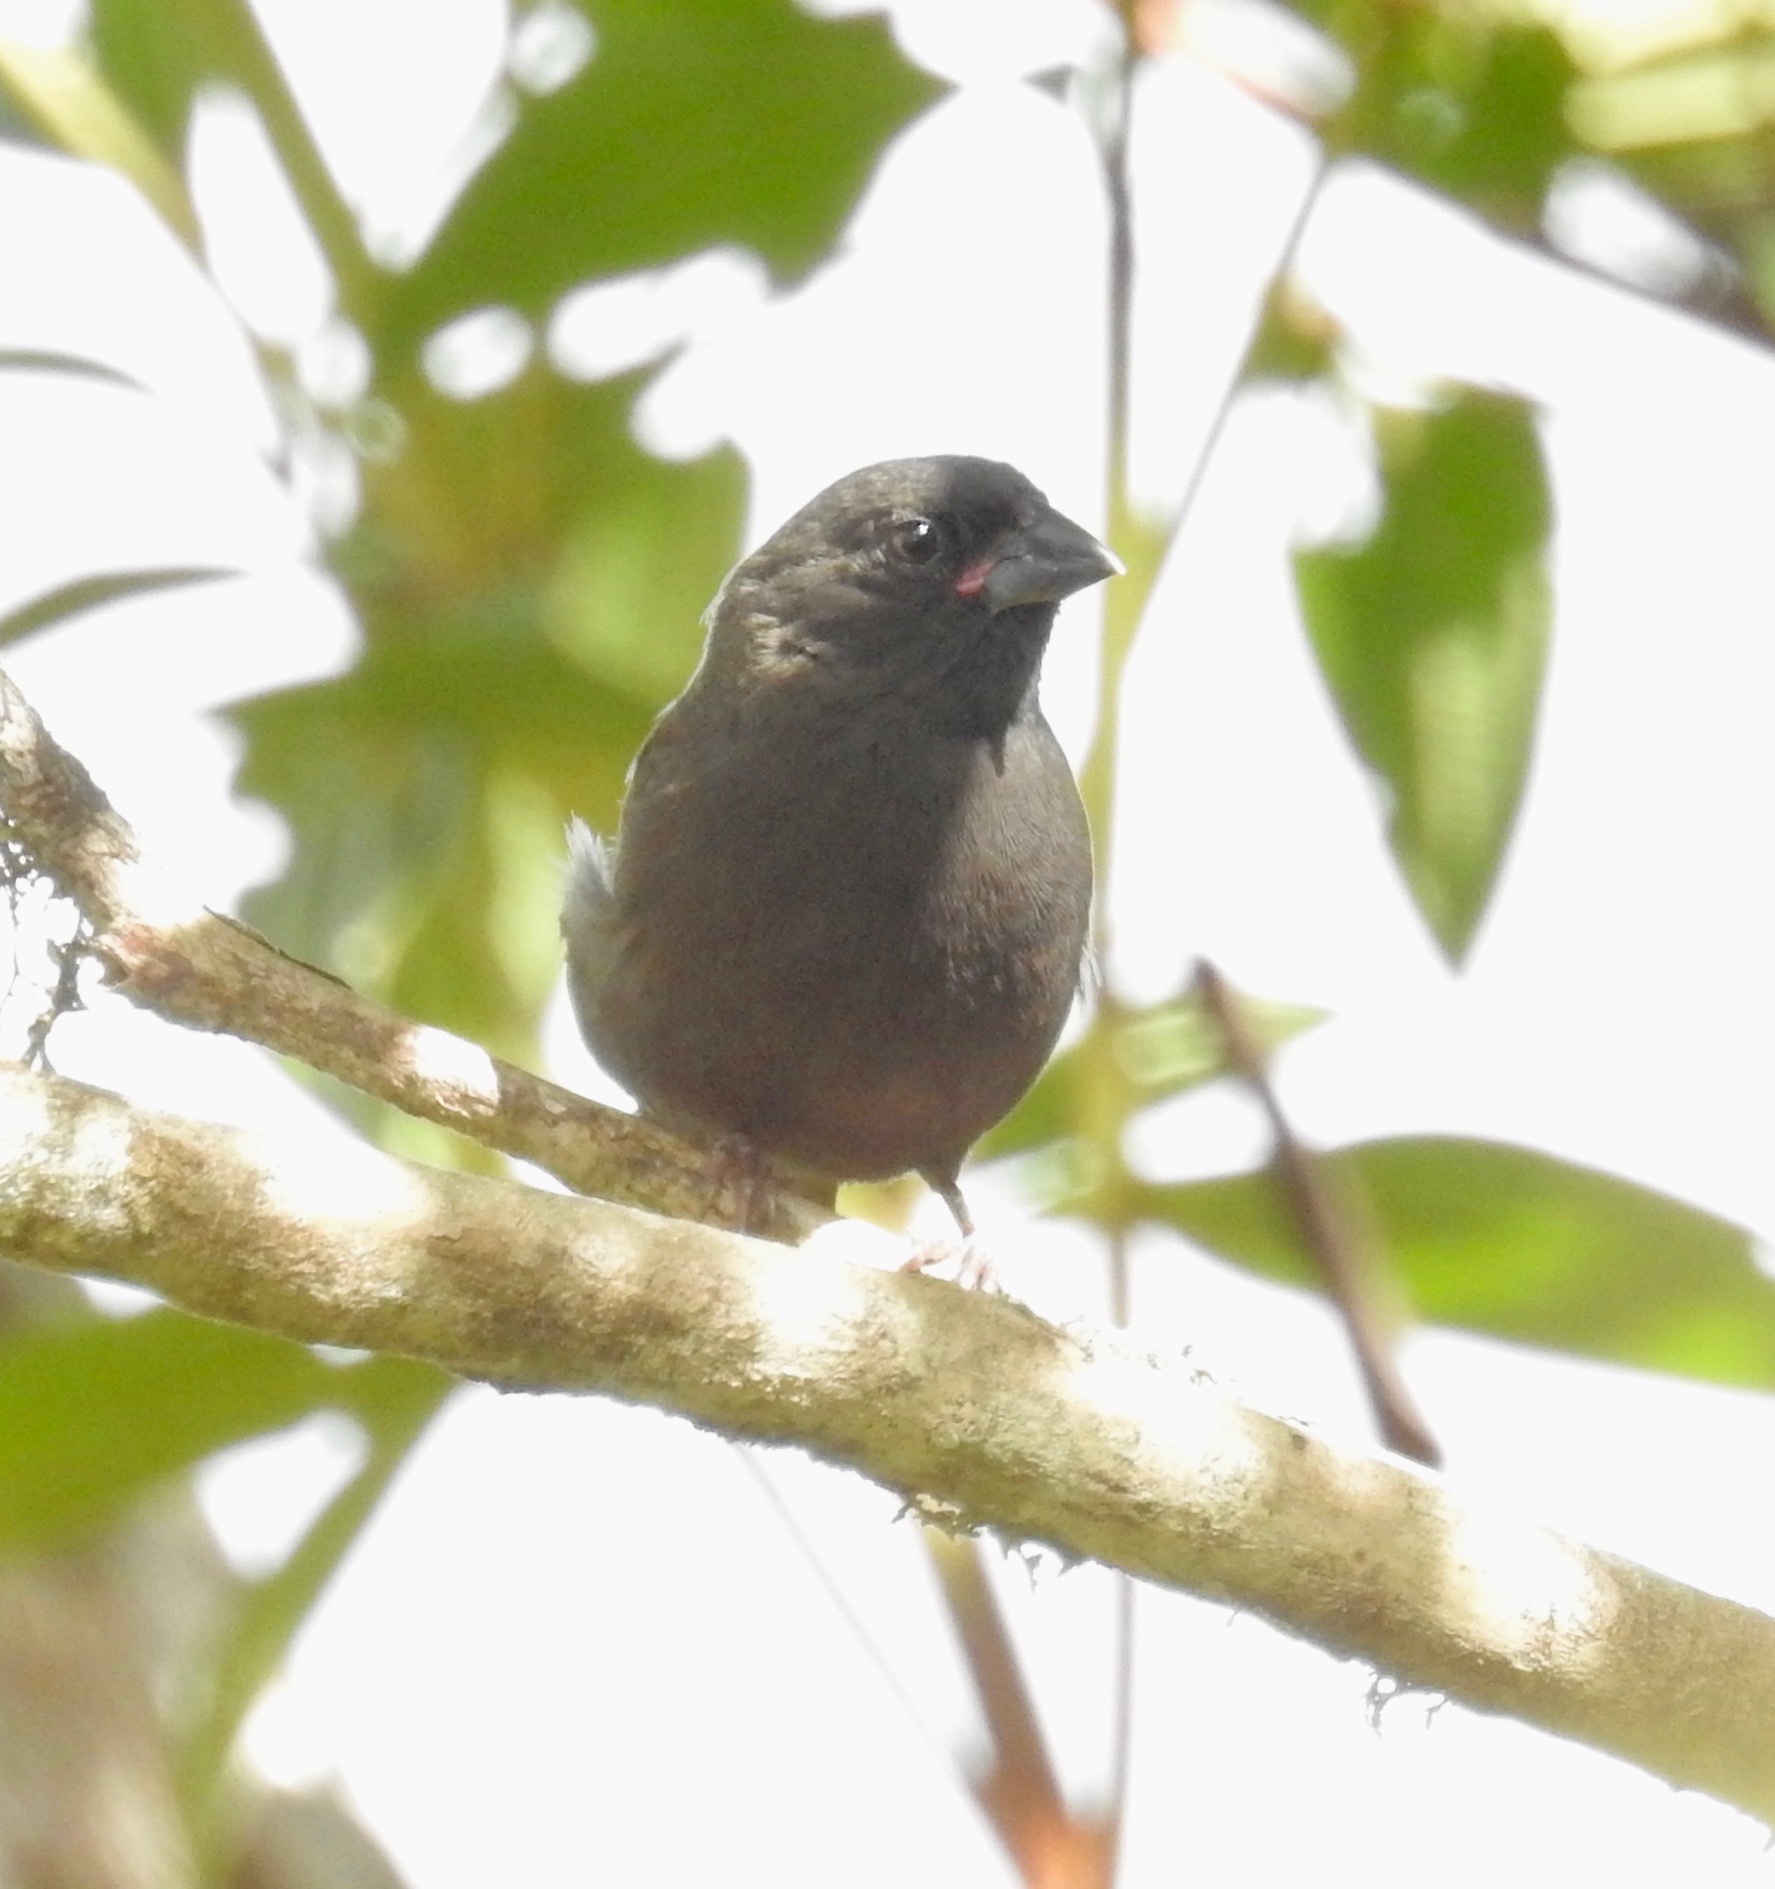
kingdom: Animalia
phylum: Chordata
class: Aves
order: Passeriformes
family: Thraupidae
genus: Asemospiza
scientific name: Asemospiza fuliginosa
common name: Sooty grassquit
